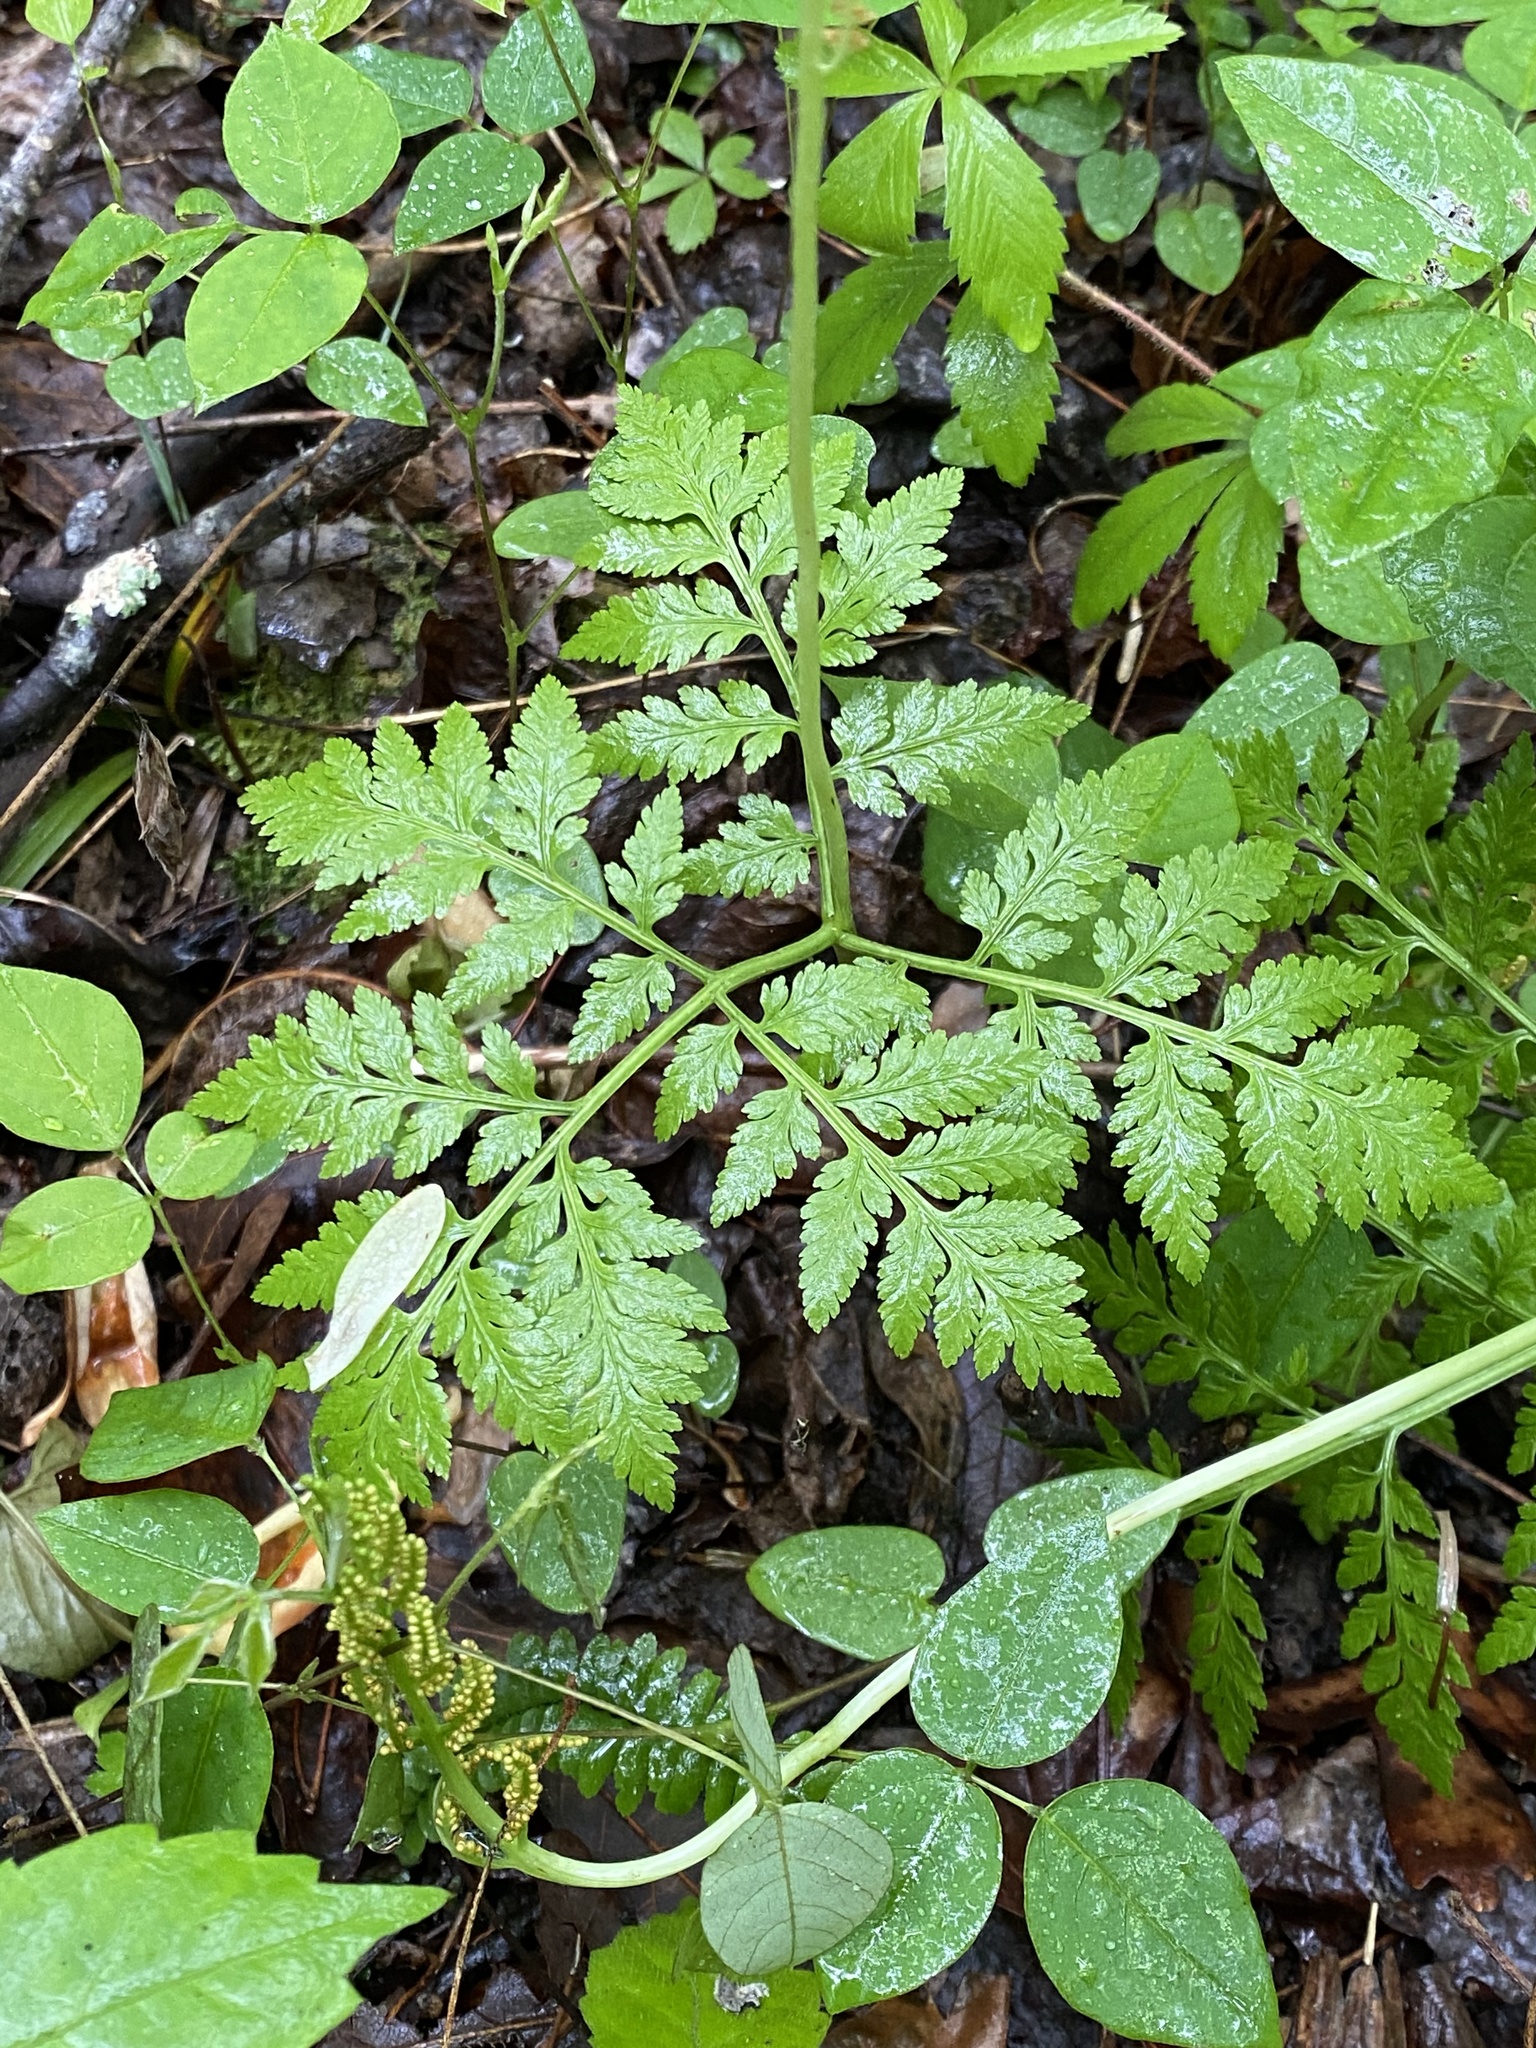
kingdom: Plantae
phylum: Tracheophyta
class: Polypodiopsida
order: Ophioglossales
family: Ophioglossaceae
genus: Botrypus
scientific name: Botrypus virginianus
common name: Common grapefern
